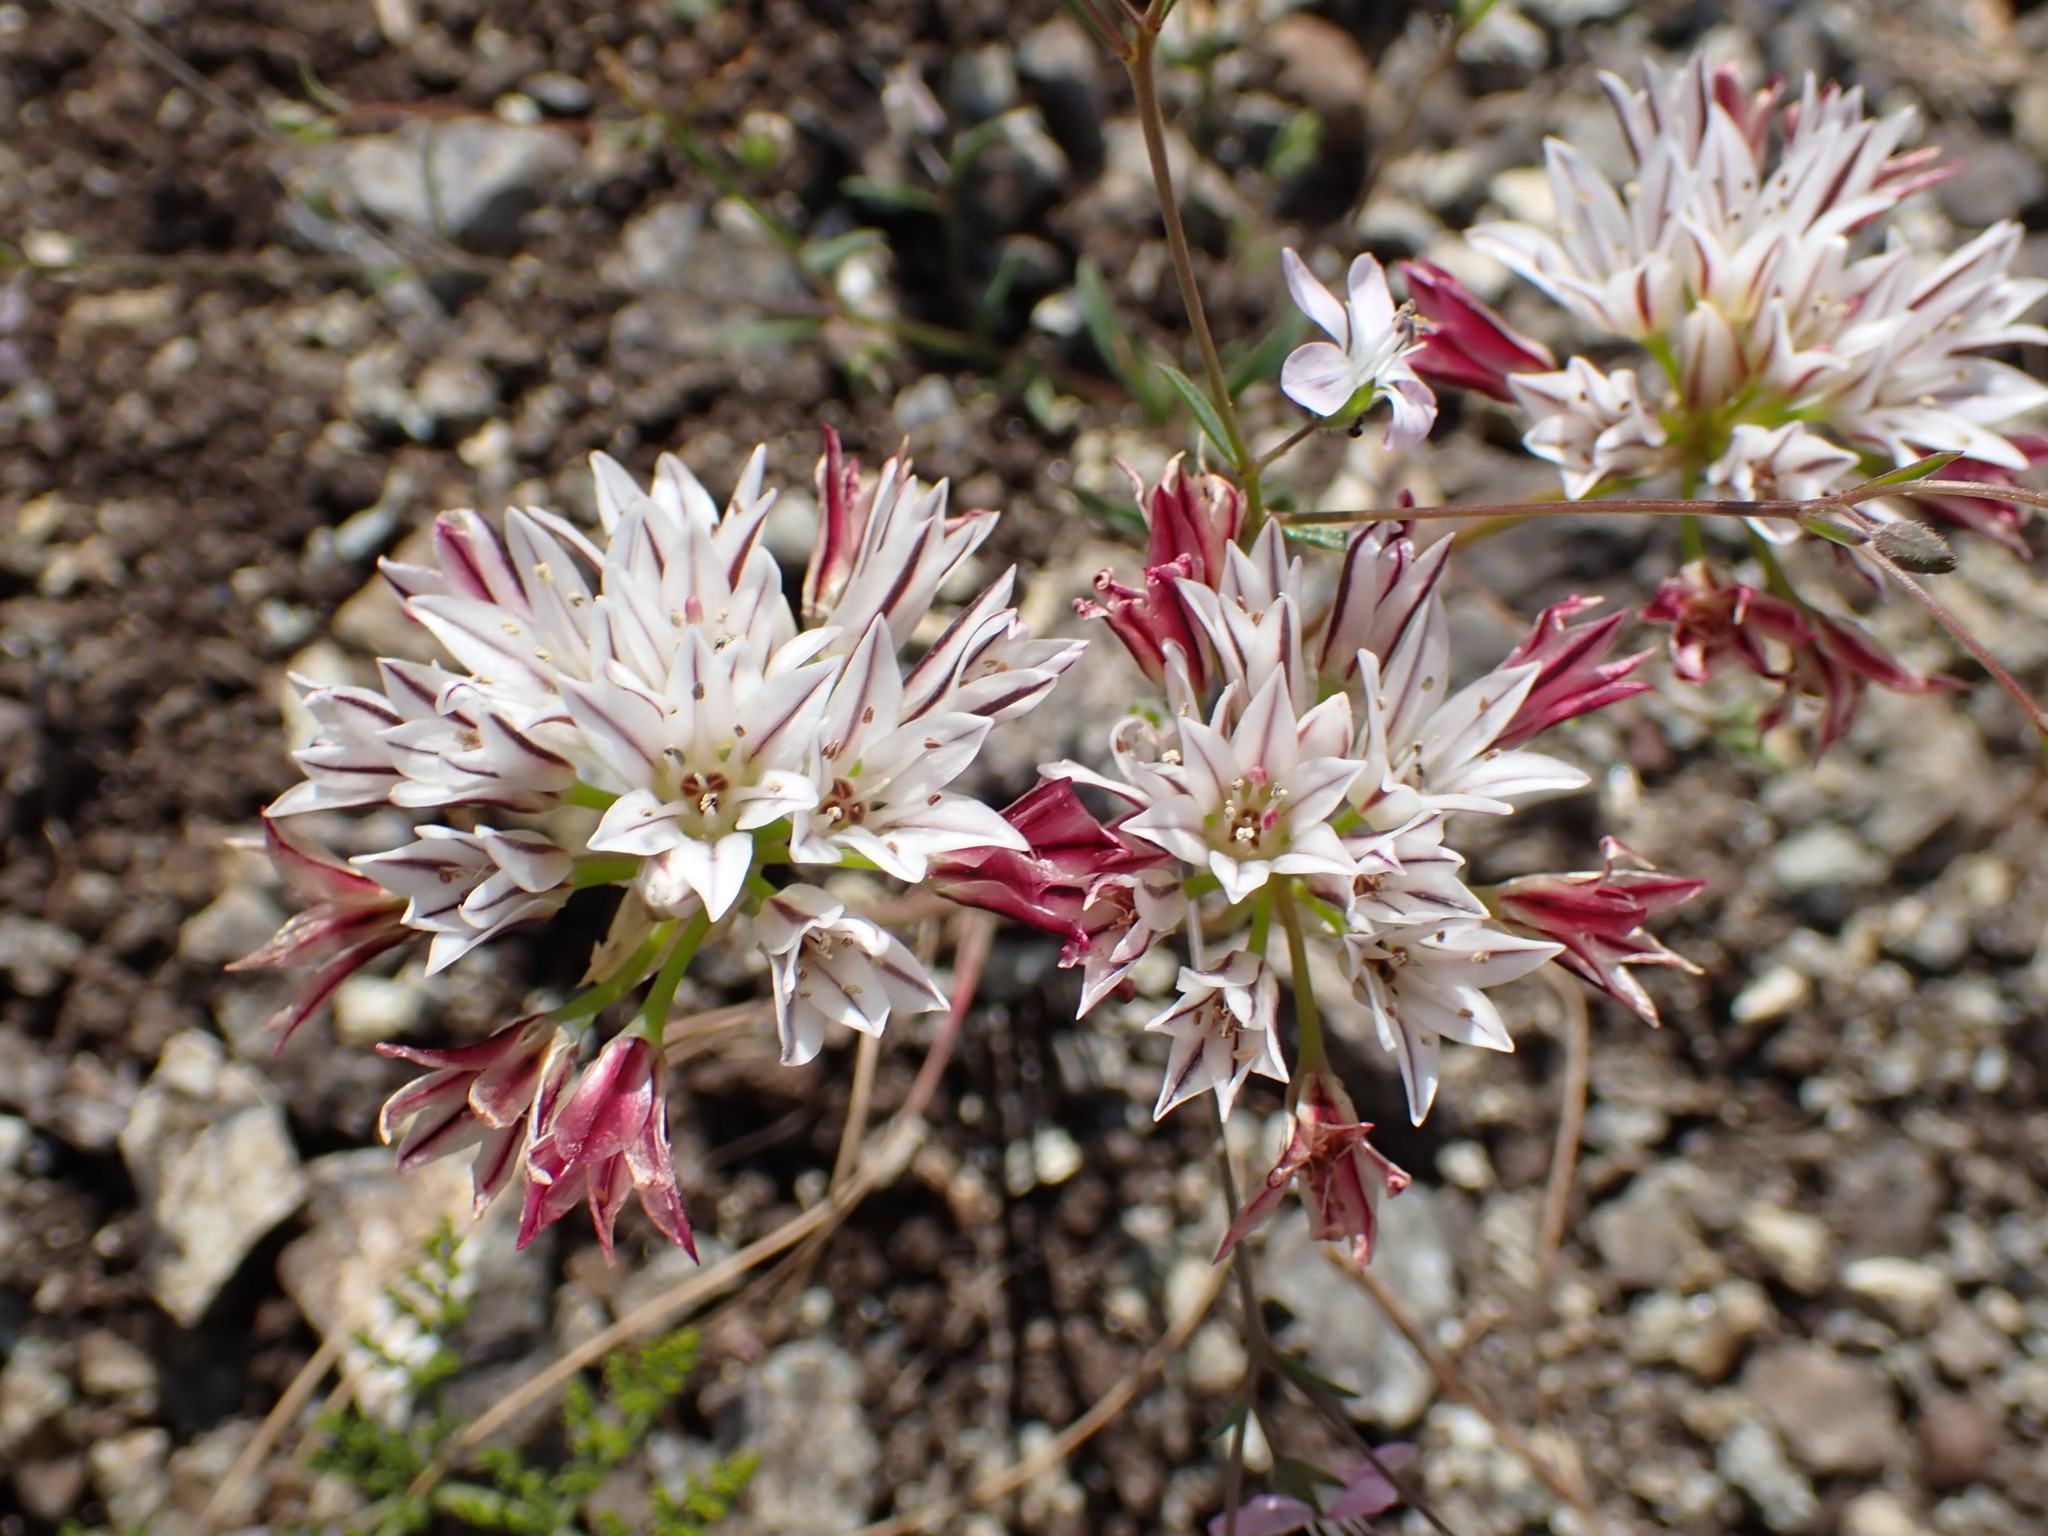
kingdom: Plantae
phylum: Tracheophyta
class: Liliopsida
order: Asparagales
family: Amaryllidaceae
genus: Allium
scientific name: Allium lacunosum
